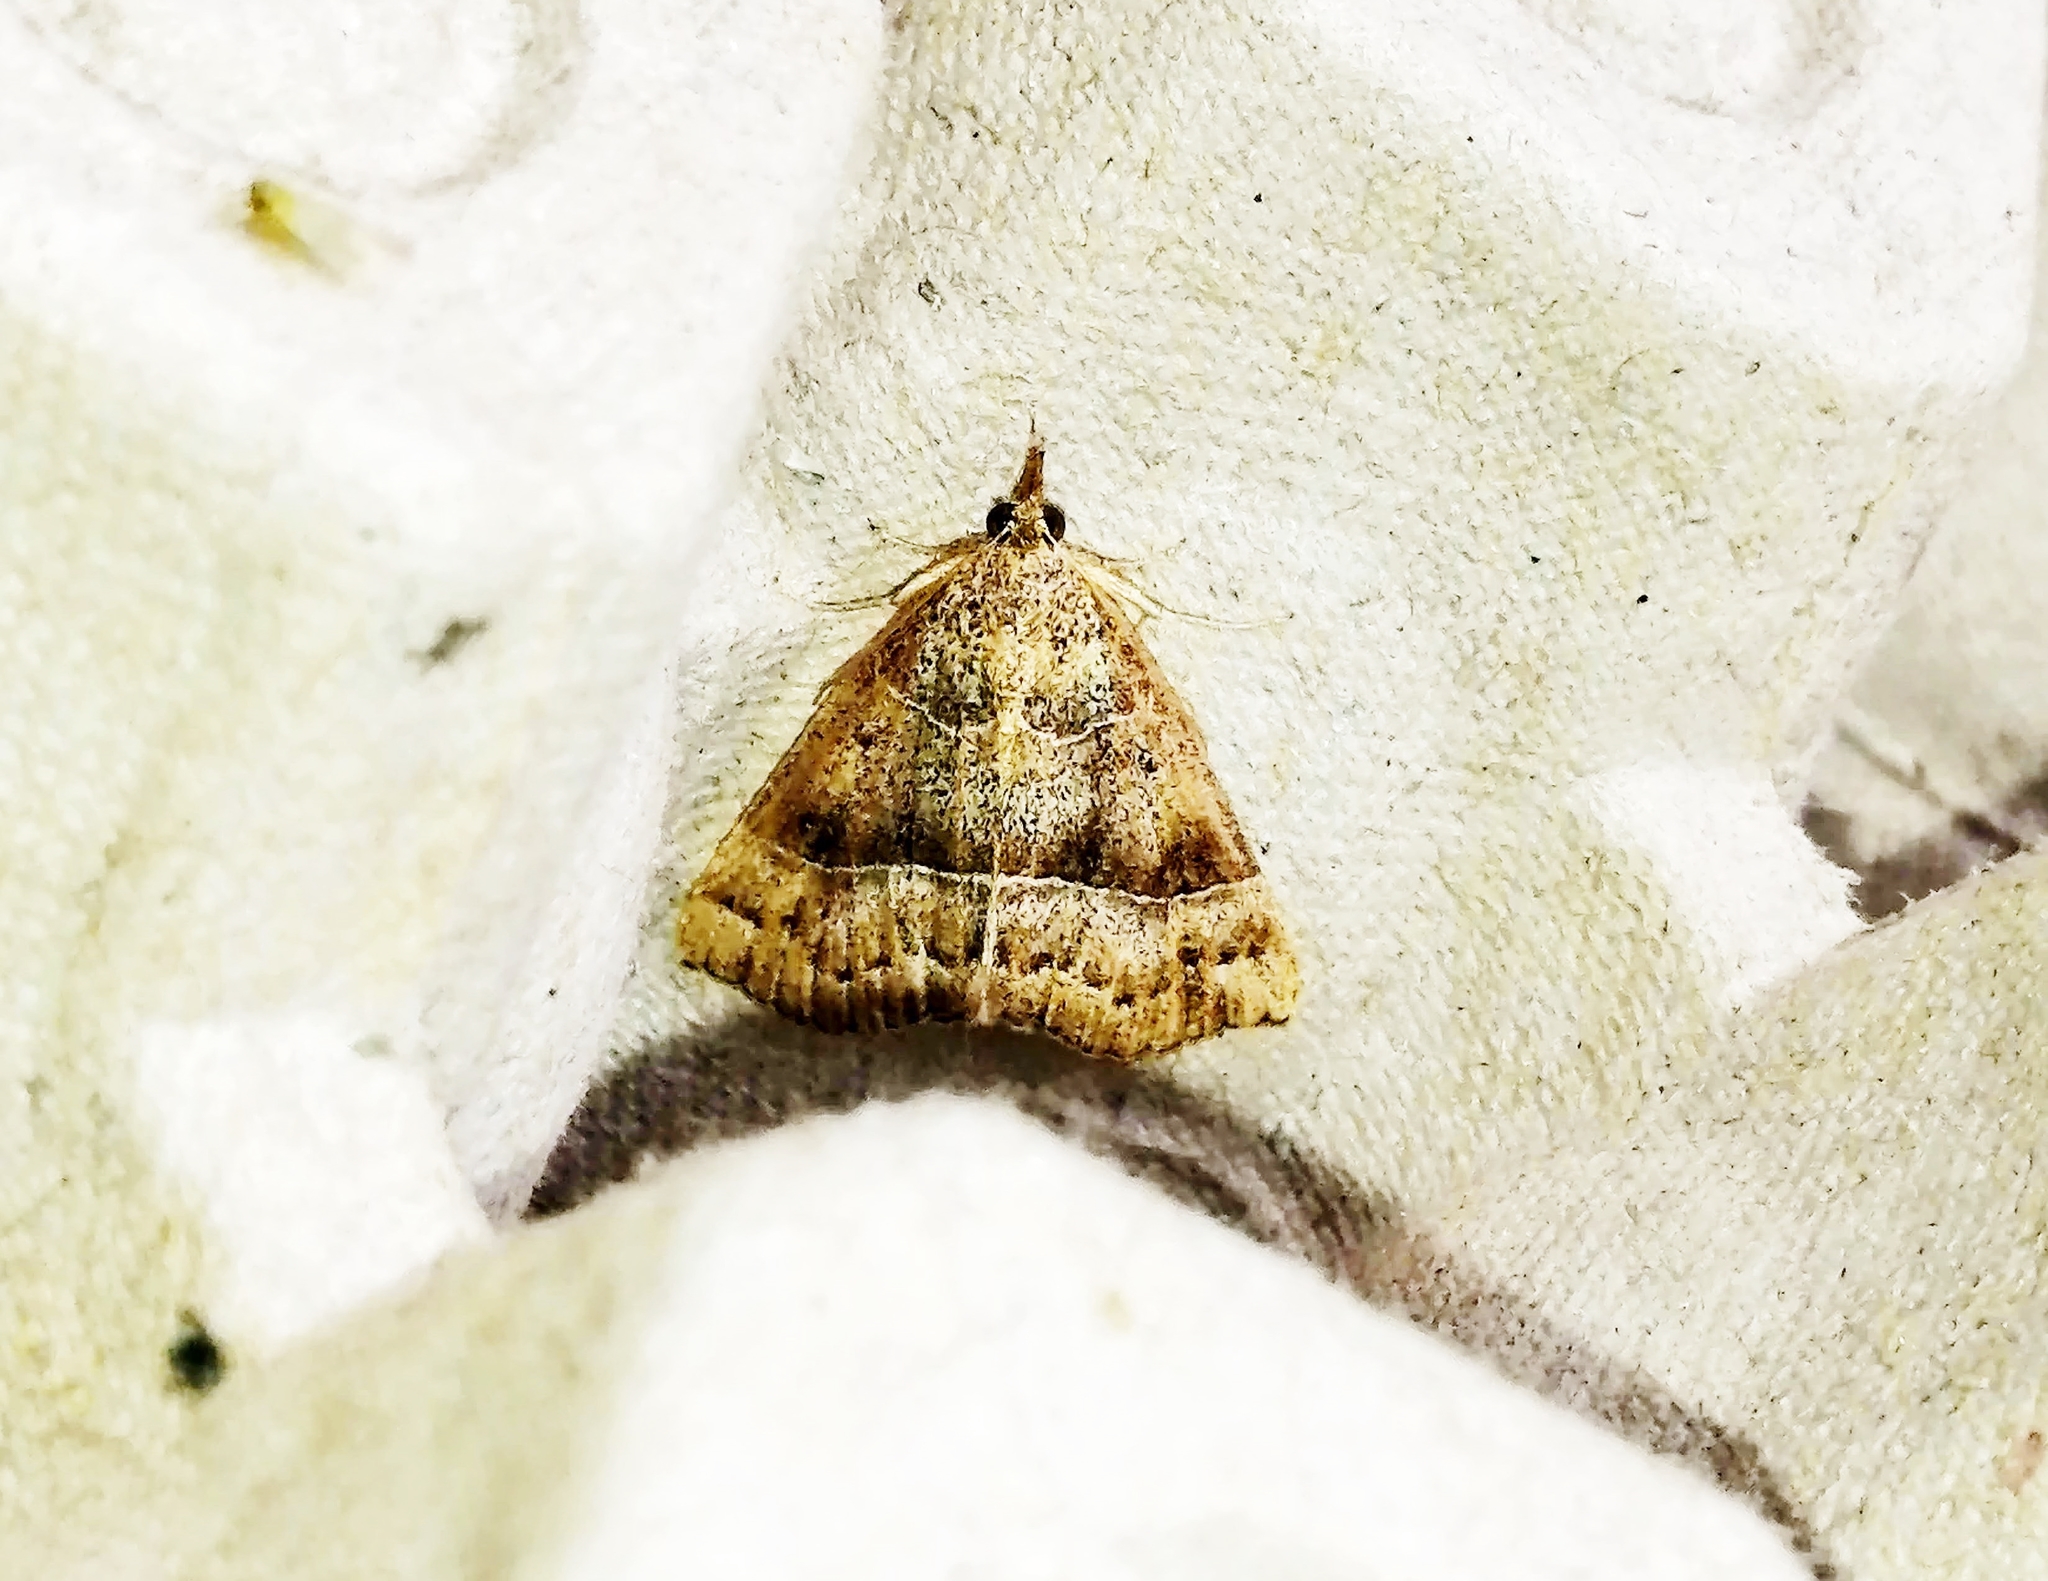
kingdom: Animalia
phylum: Arthropoda
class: Insecta
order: Lepidoptera
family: Erebidae
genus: Hypena
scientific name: Hypena deceptalis
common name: Deceptive snout
